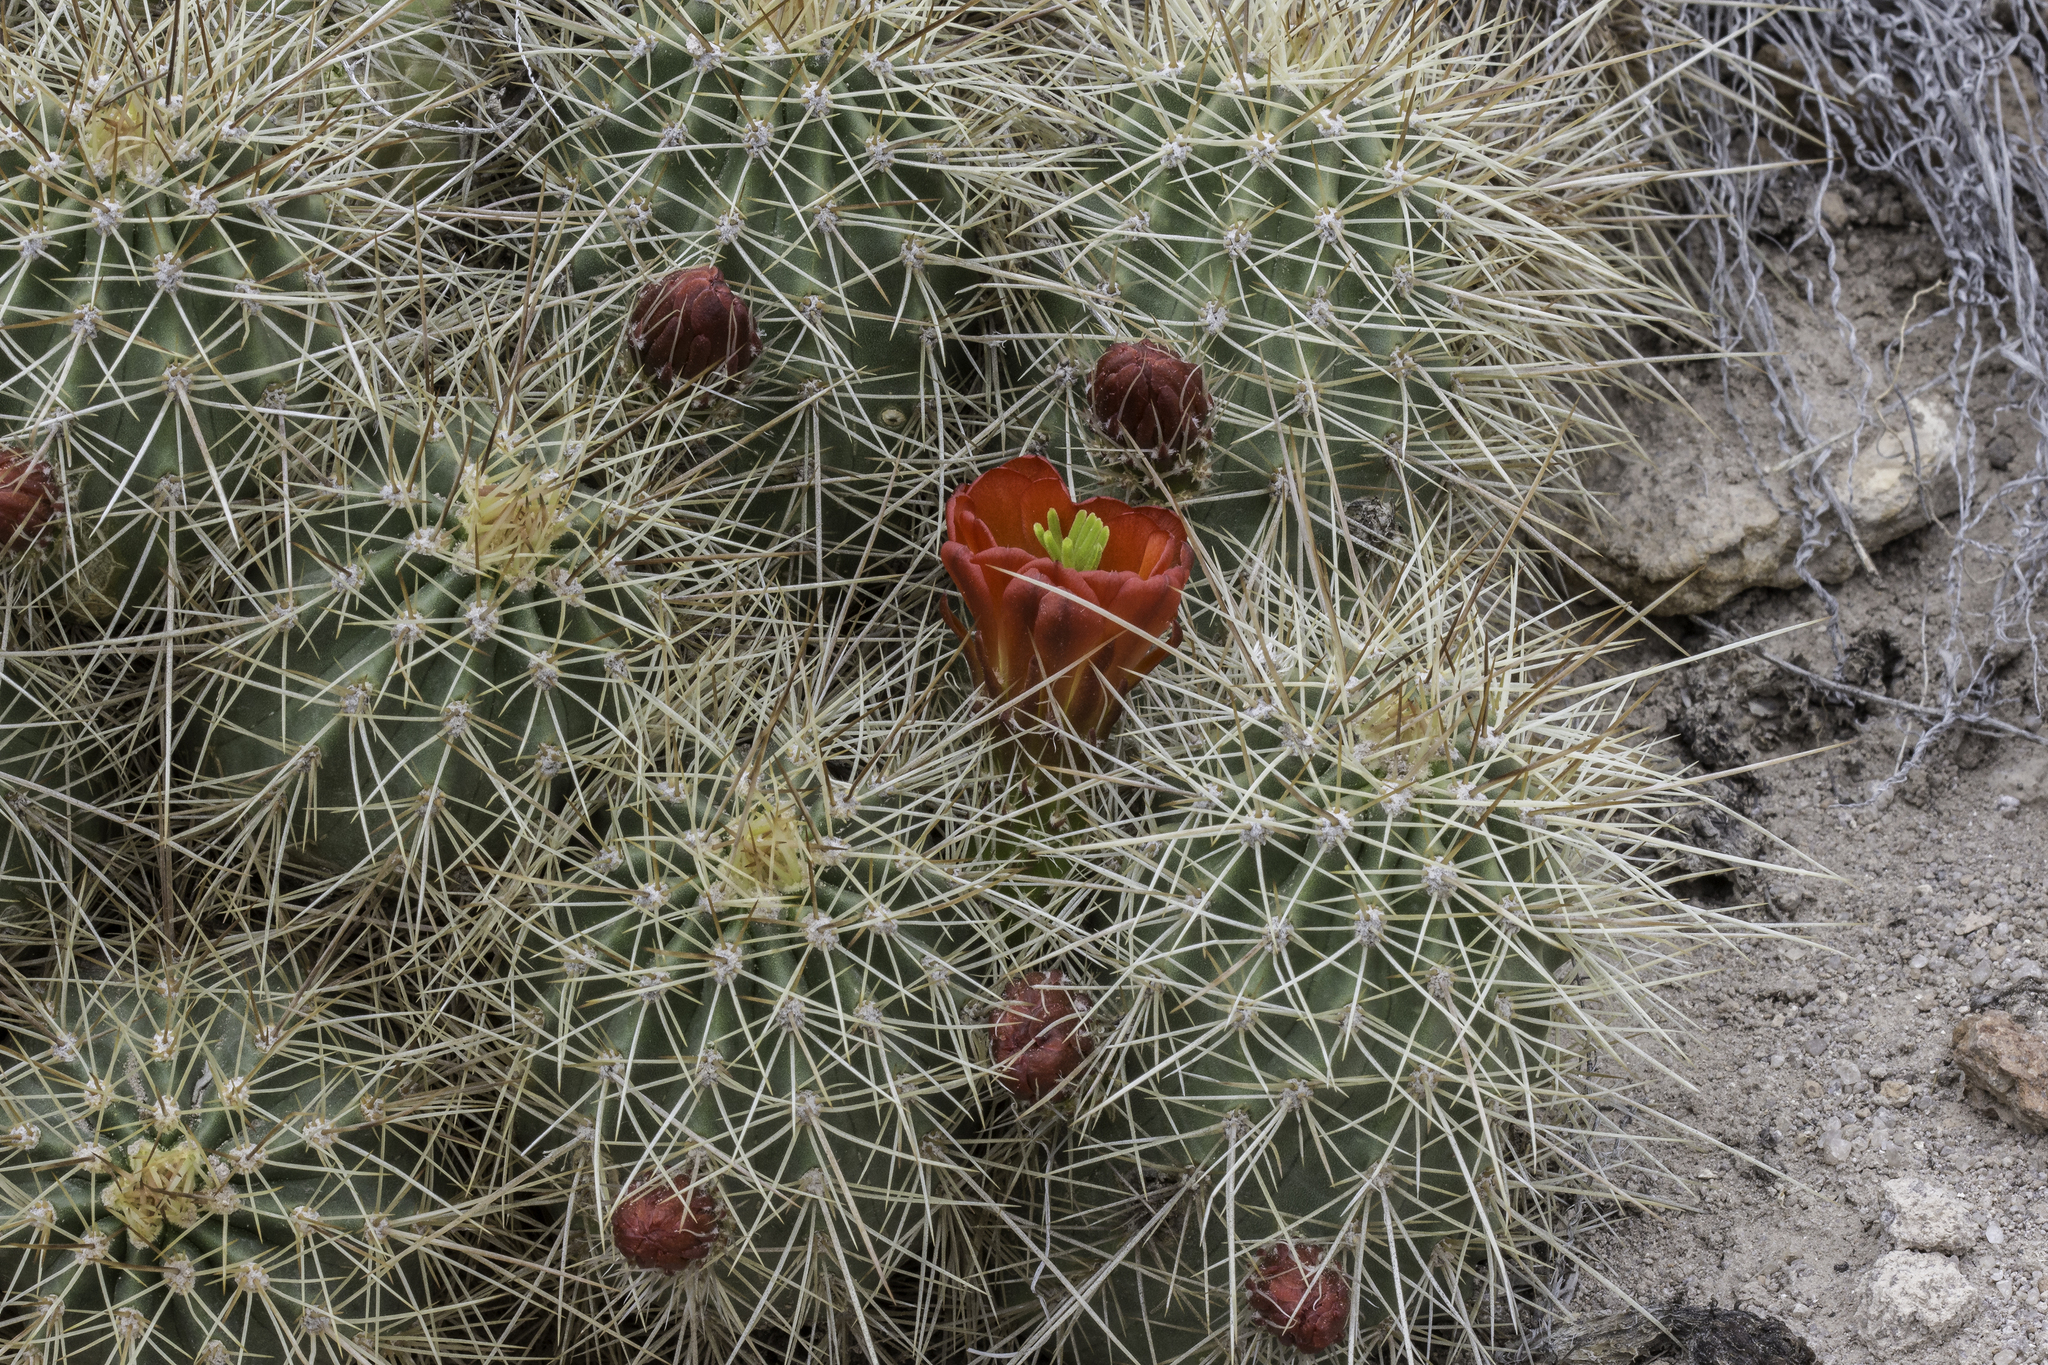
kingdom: Plantae
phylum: Tracheophyta
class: Magnoliopsida
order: Caryophyllales
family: Cactaceae
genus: Echinocereus
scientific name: Echinocereus coccineus
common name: Scarlet hedgehog cactus
